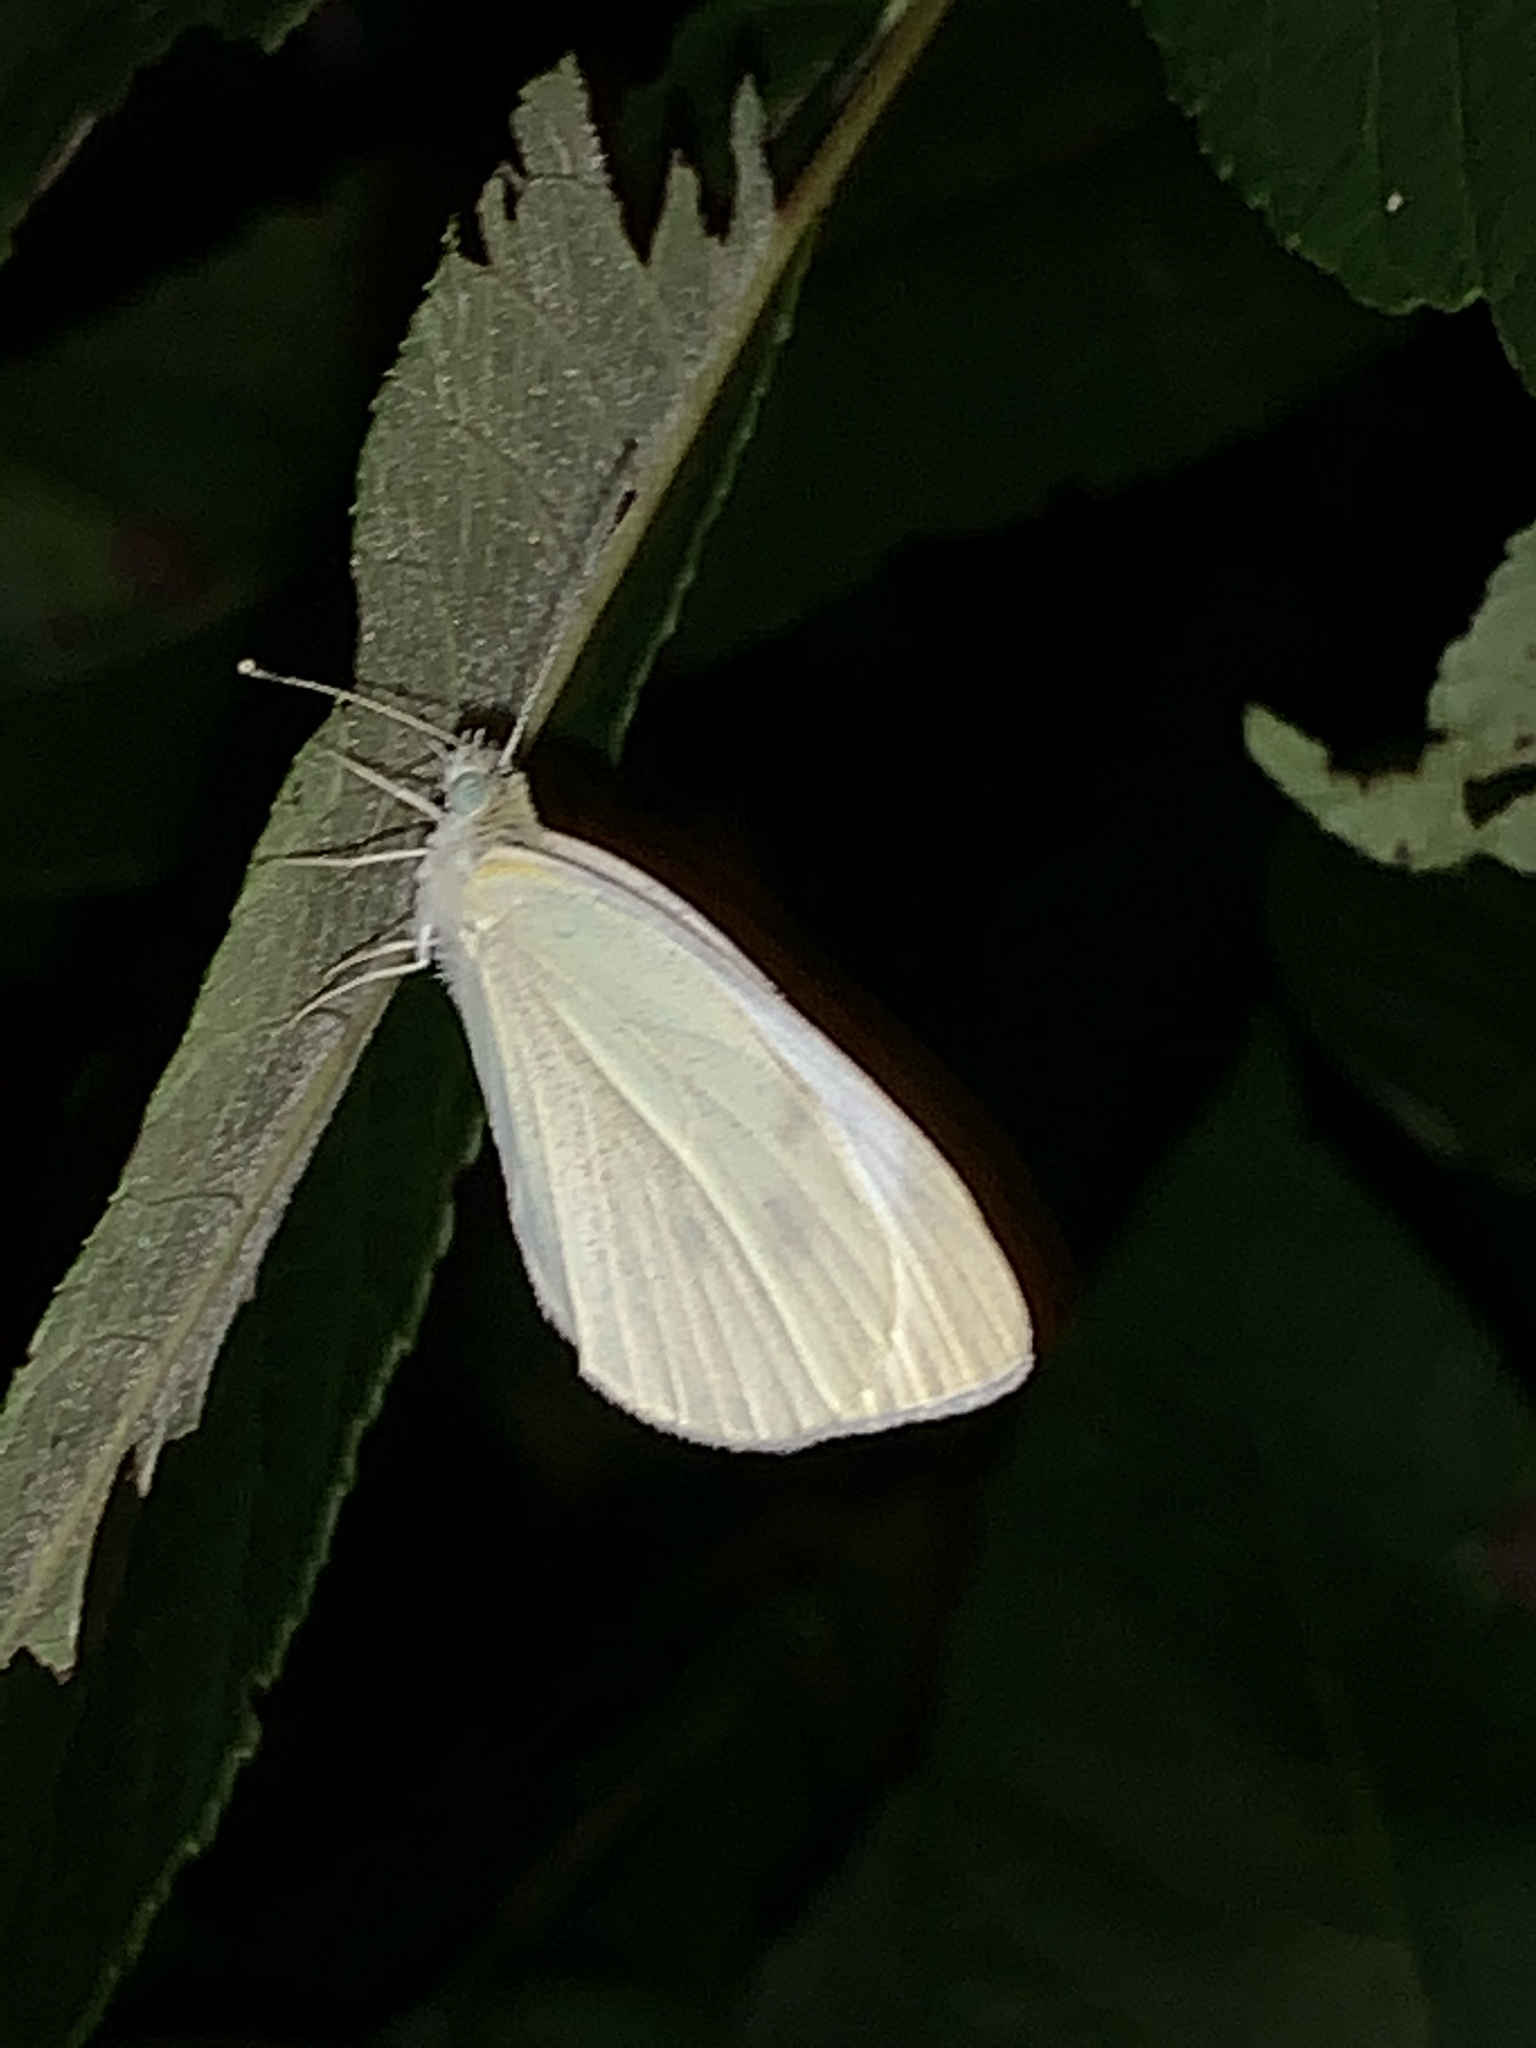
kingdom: Animalia
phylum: Arthropoda
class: Insecta
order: Lepidoptera
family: Pieridae
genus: Pieris
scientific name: Pieris rapae
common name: Small white
